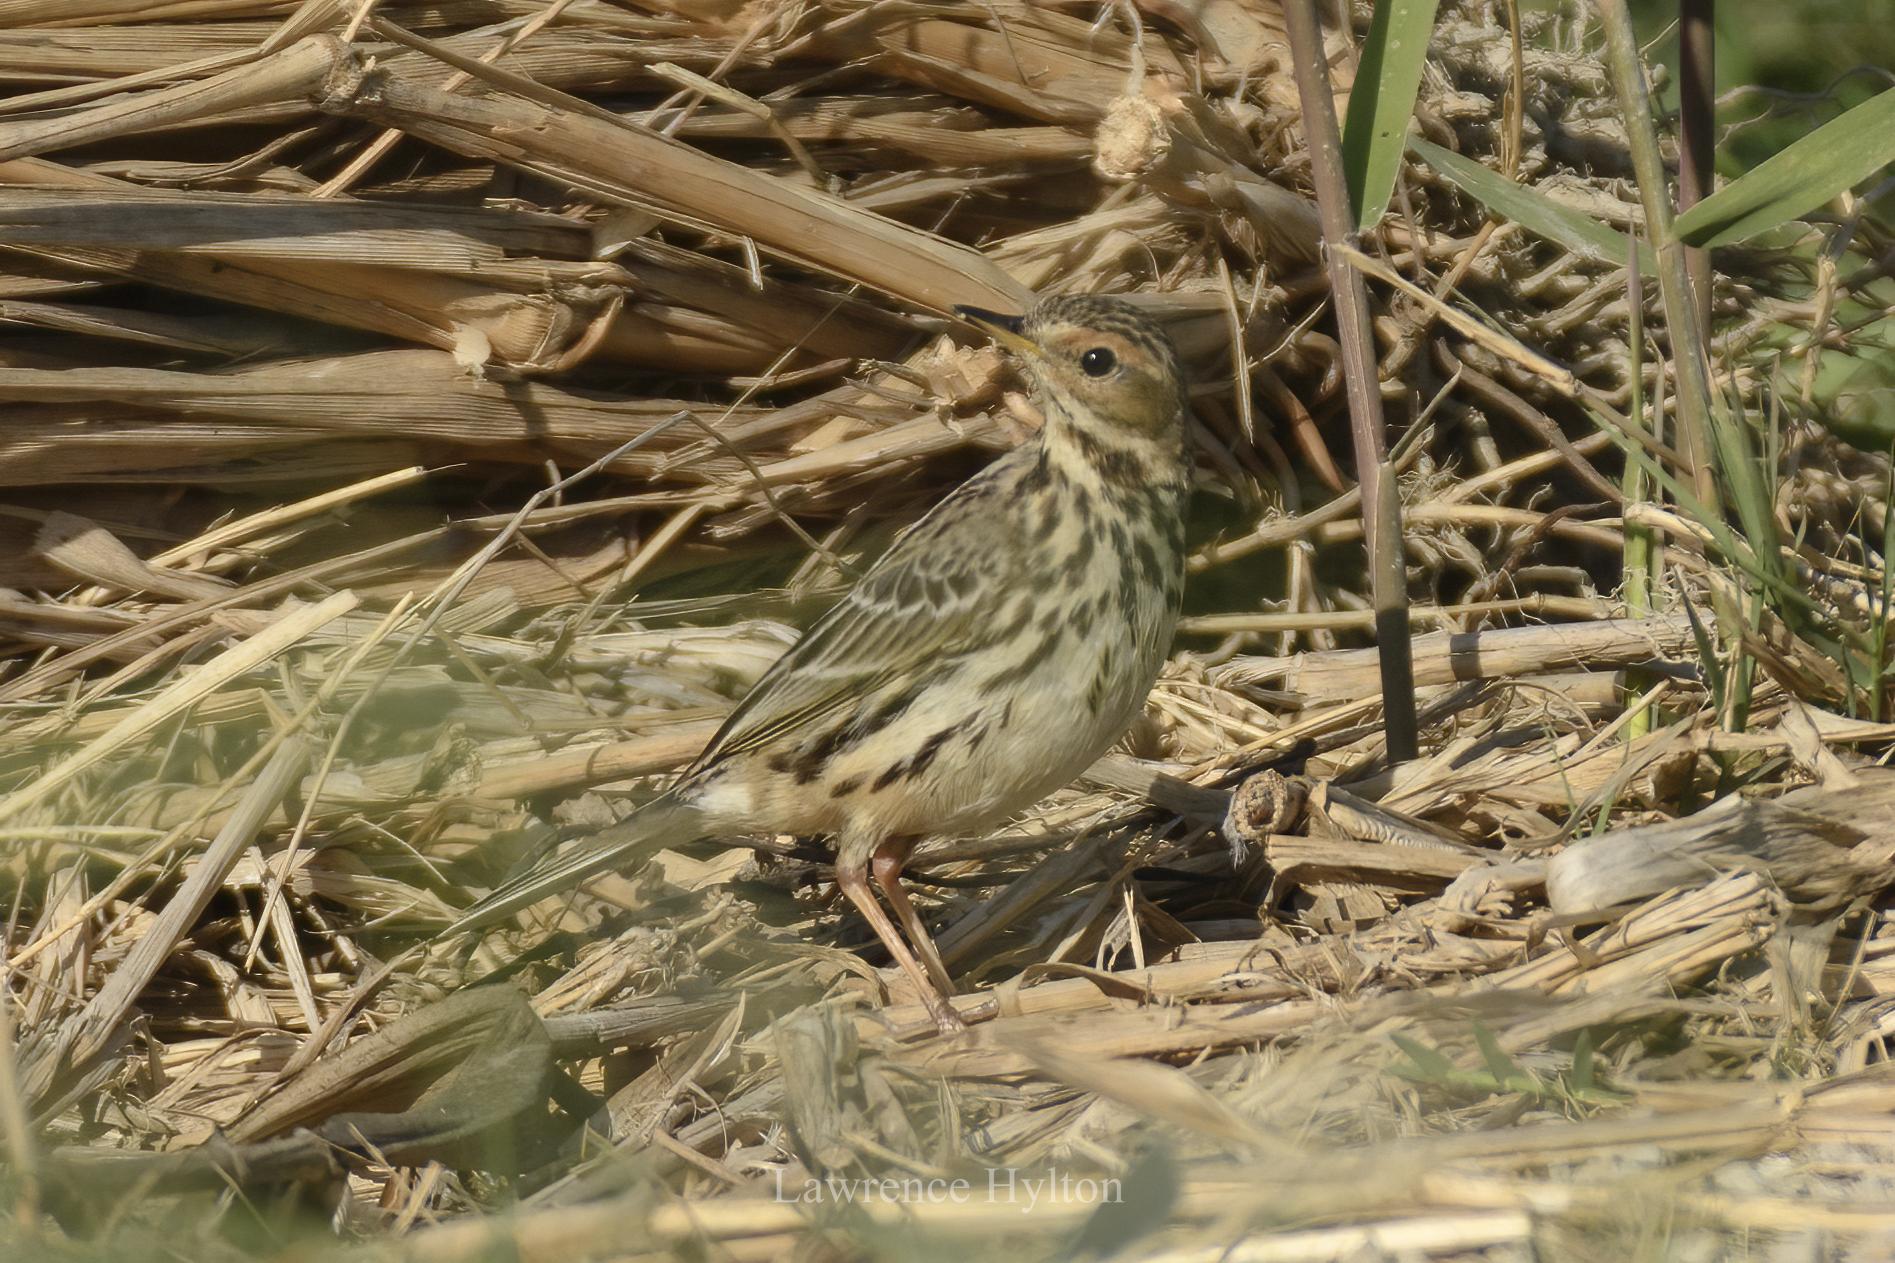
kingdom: Animalia
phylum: Chordata
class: Aves
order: Passeriformes
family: Motacillidae
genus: Anthus
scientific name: Anthus cervinus
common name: Red-throated pipit
